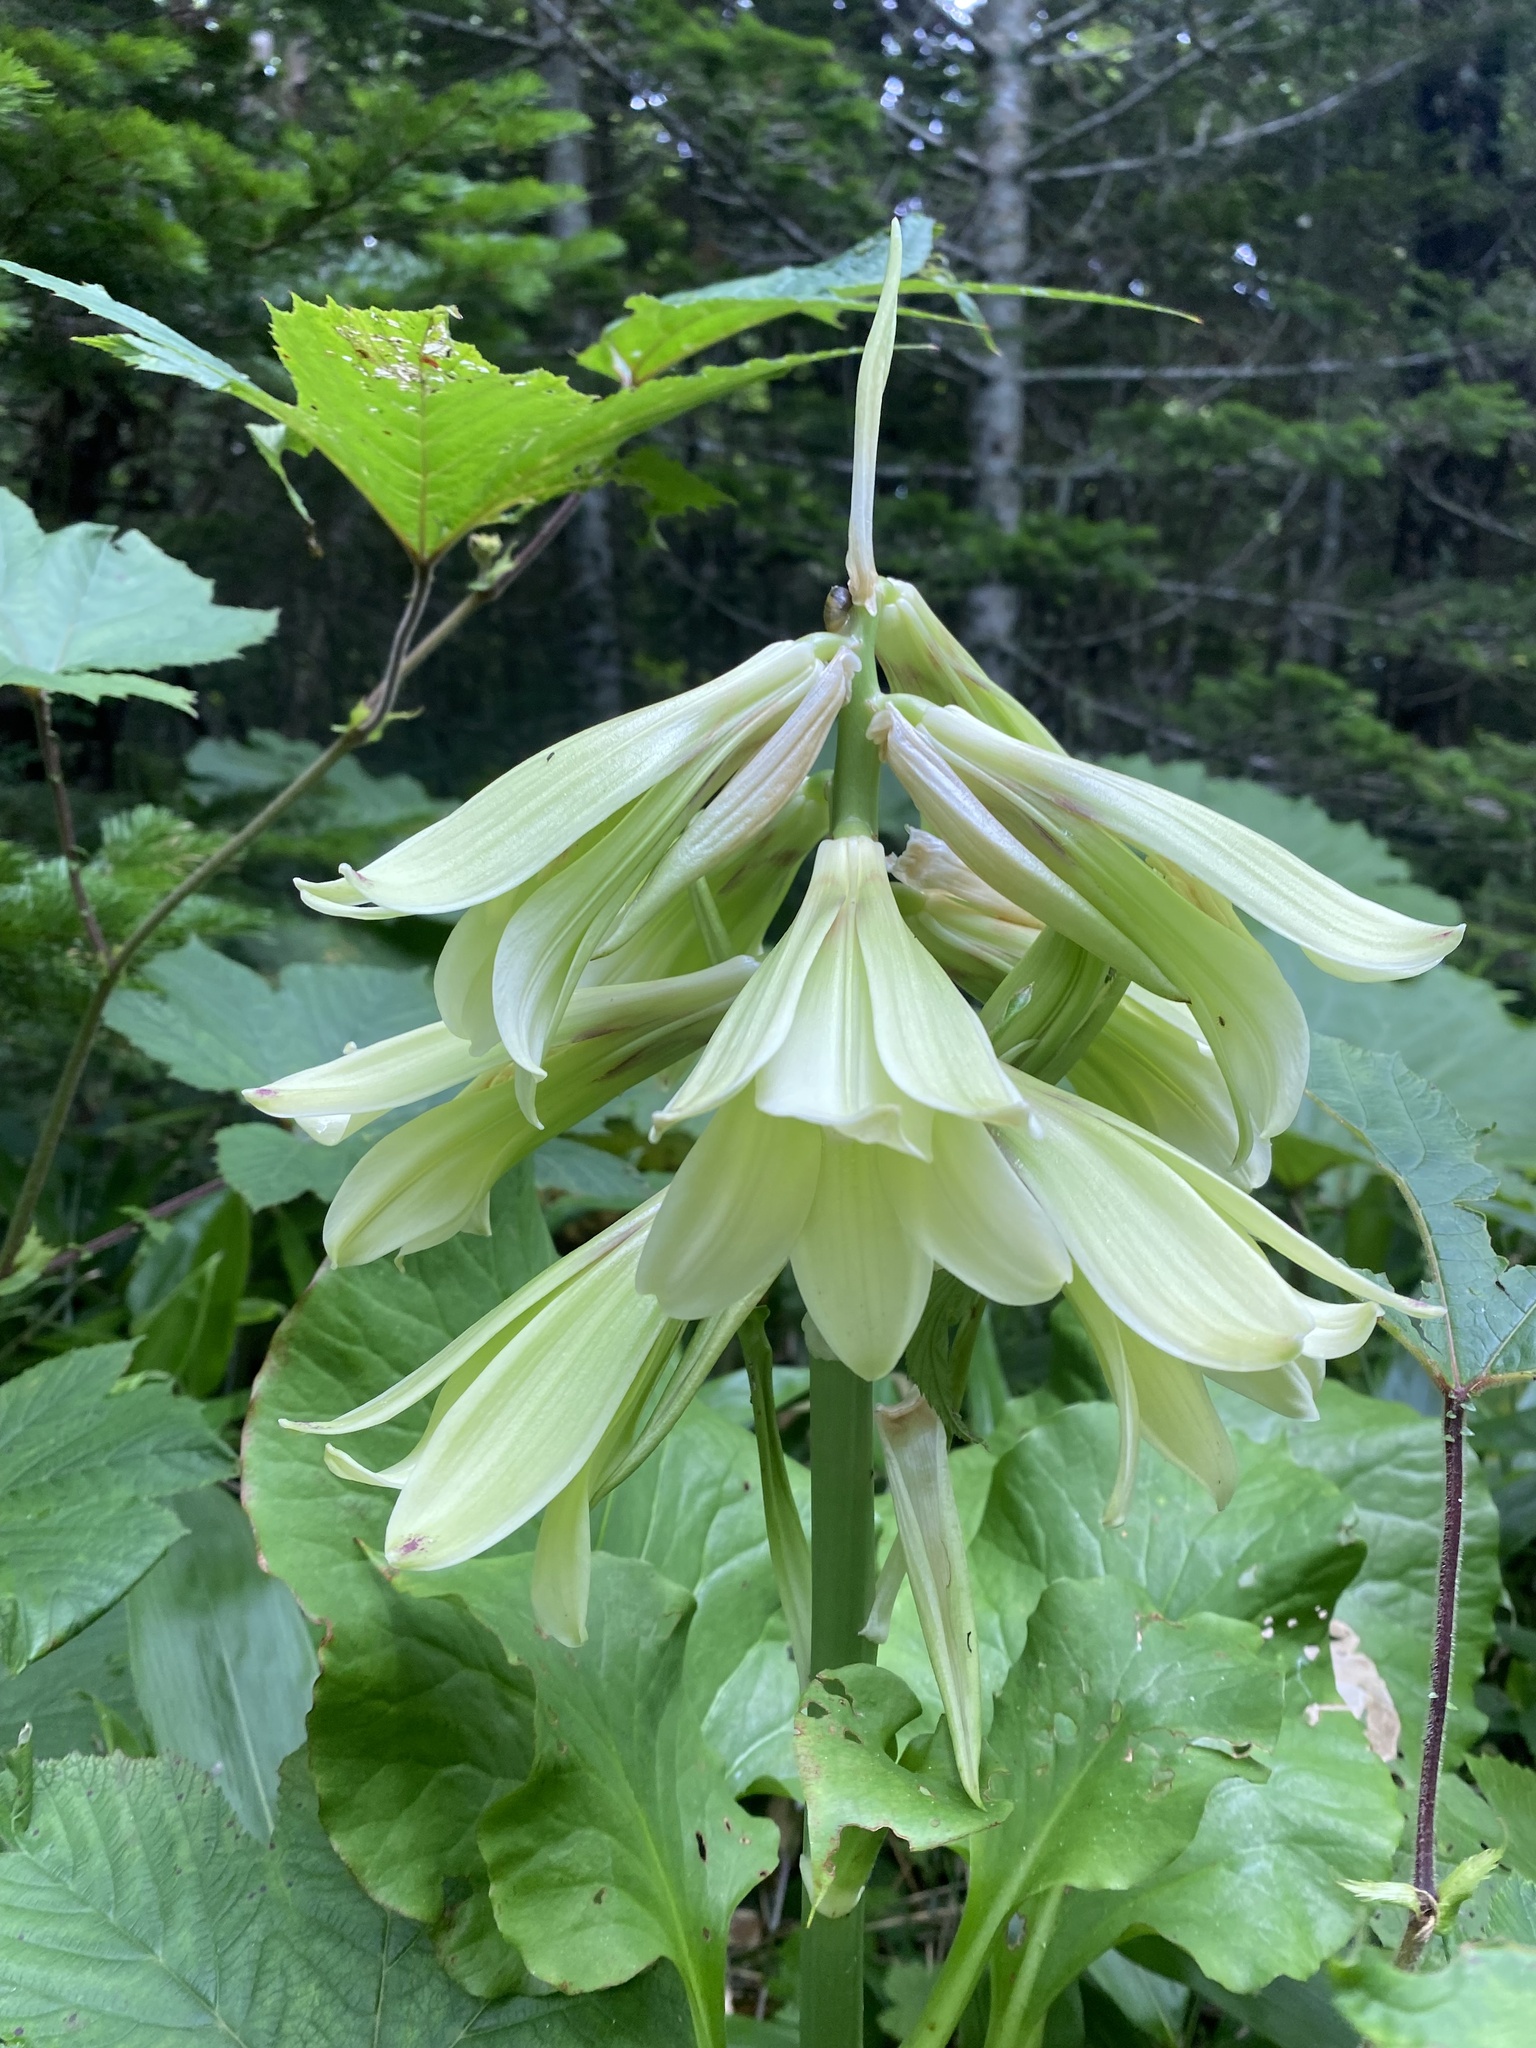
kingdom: Plantae
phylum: Tracheophyta
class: Liliopsida
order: Liliales
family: Liliaceae
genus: Cardiocrinum
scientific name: Cardiocrinum cordatum
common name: Lily
